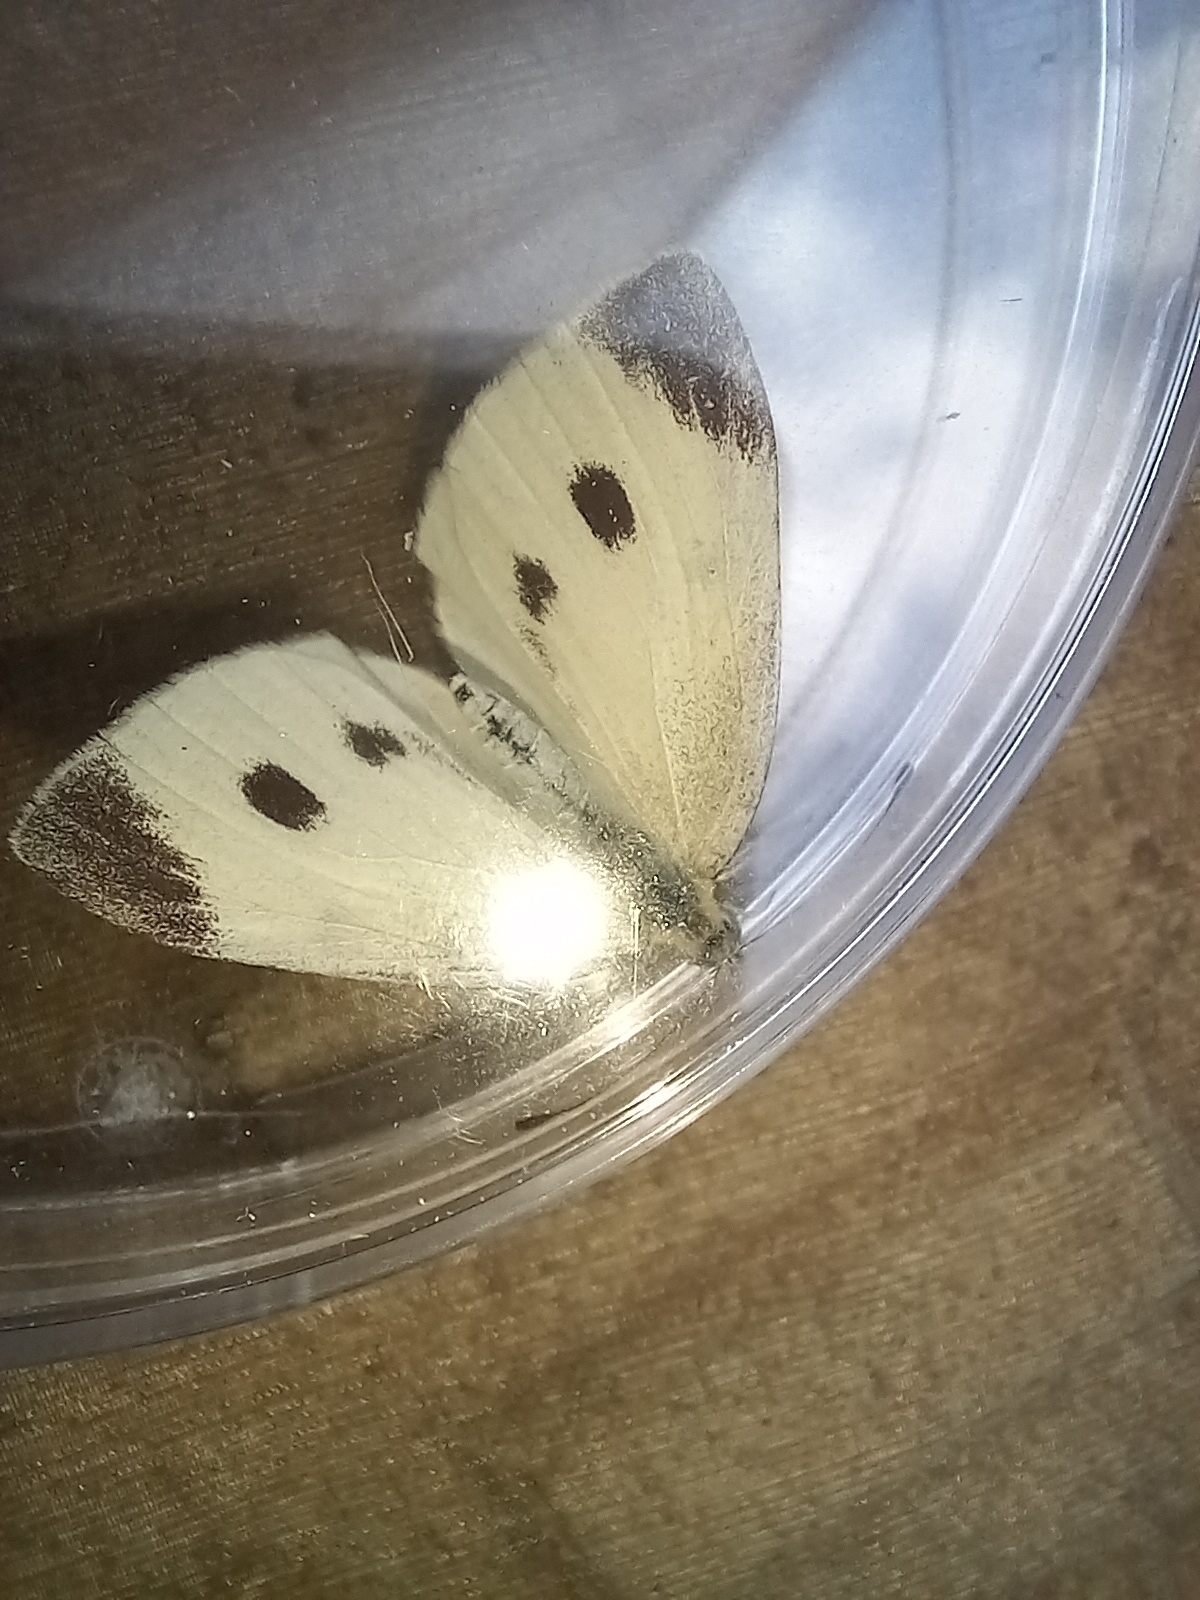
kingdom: Animalia
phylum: Arthropoda
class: Insecta
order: Lepidoptera
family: Pieridae
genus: Pieris
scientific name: Pieris rapae
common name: Small white
